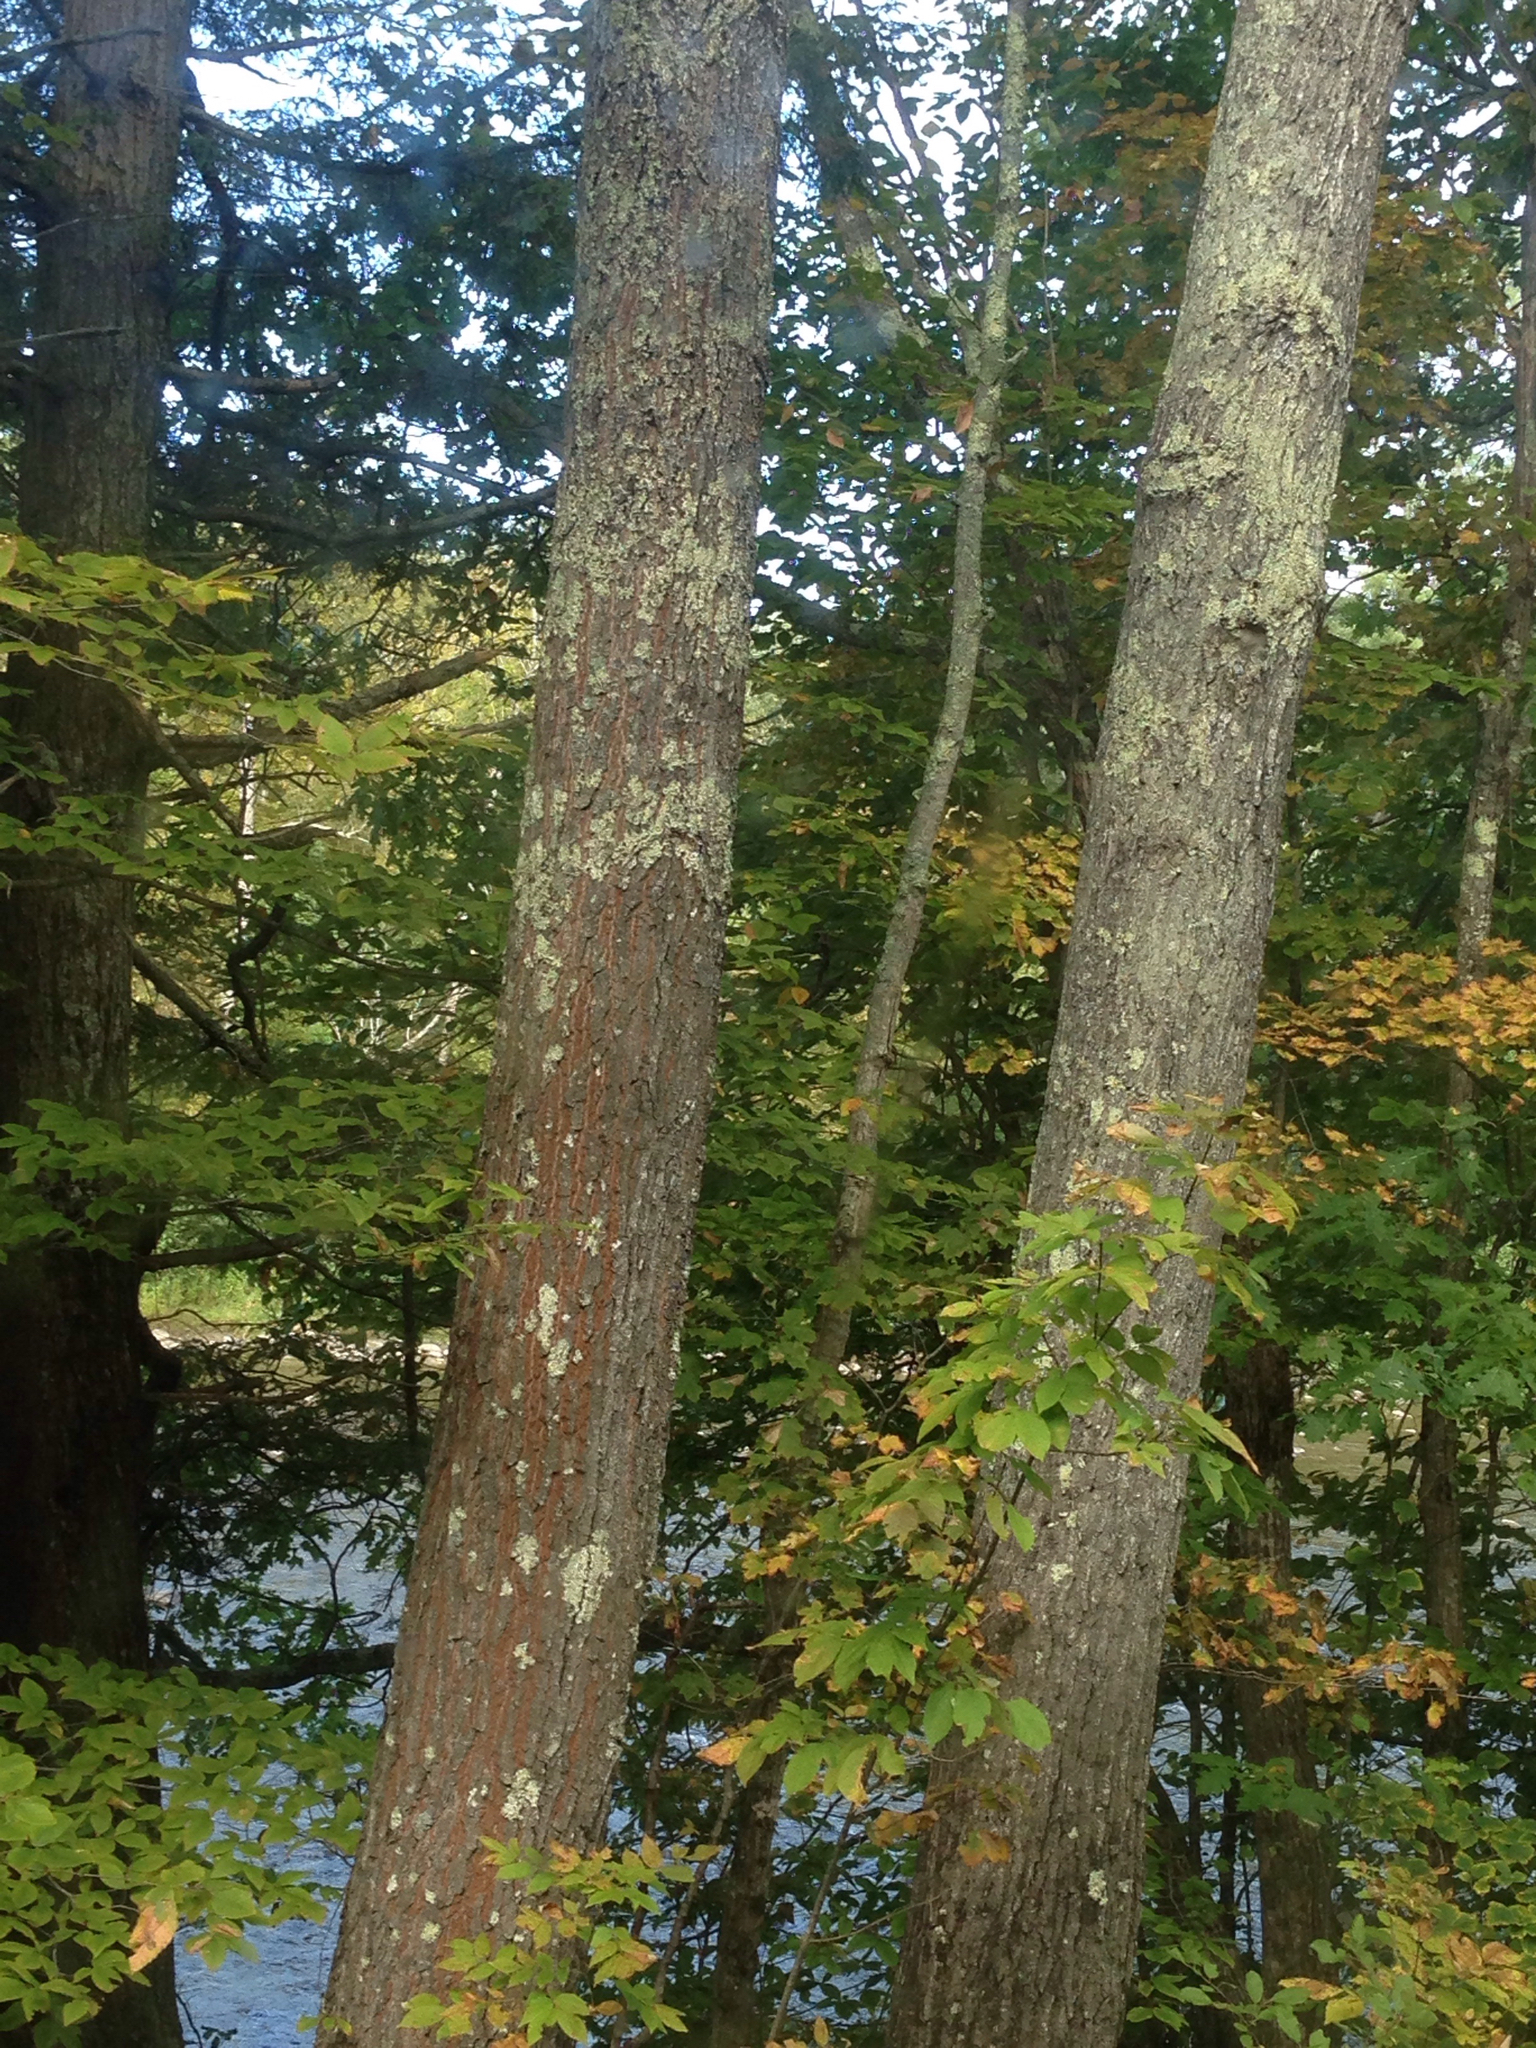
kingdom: Plantae
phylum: Tracheophyta
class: Magnoliopsida
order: Fagales
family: Fagaceae
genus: Quercus
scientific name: Quercus rubra
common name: Red oak
